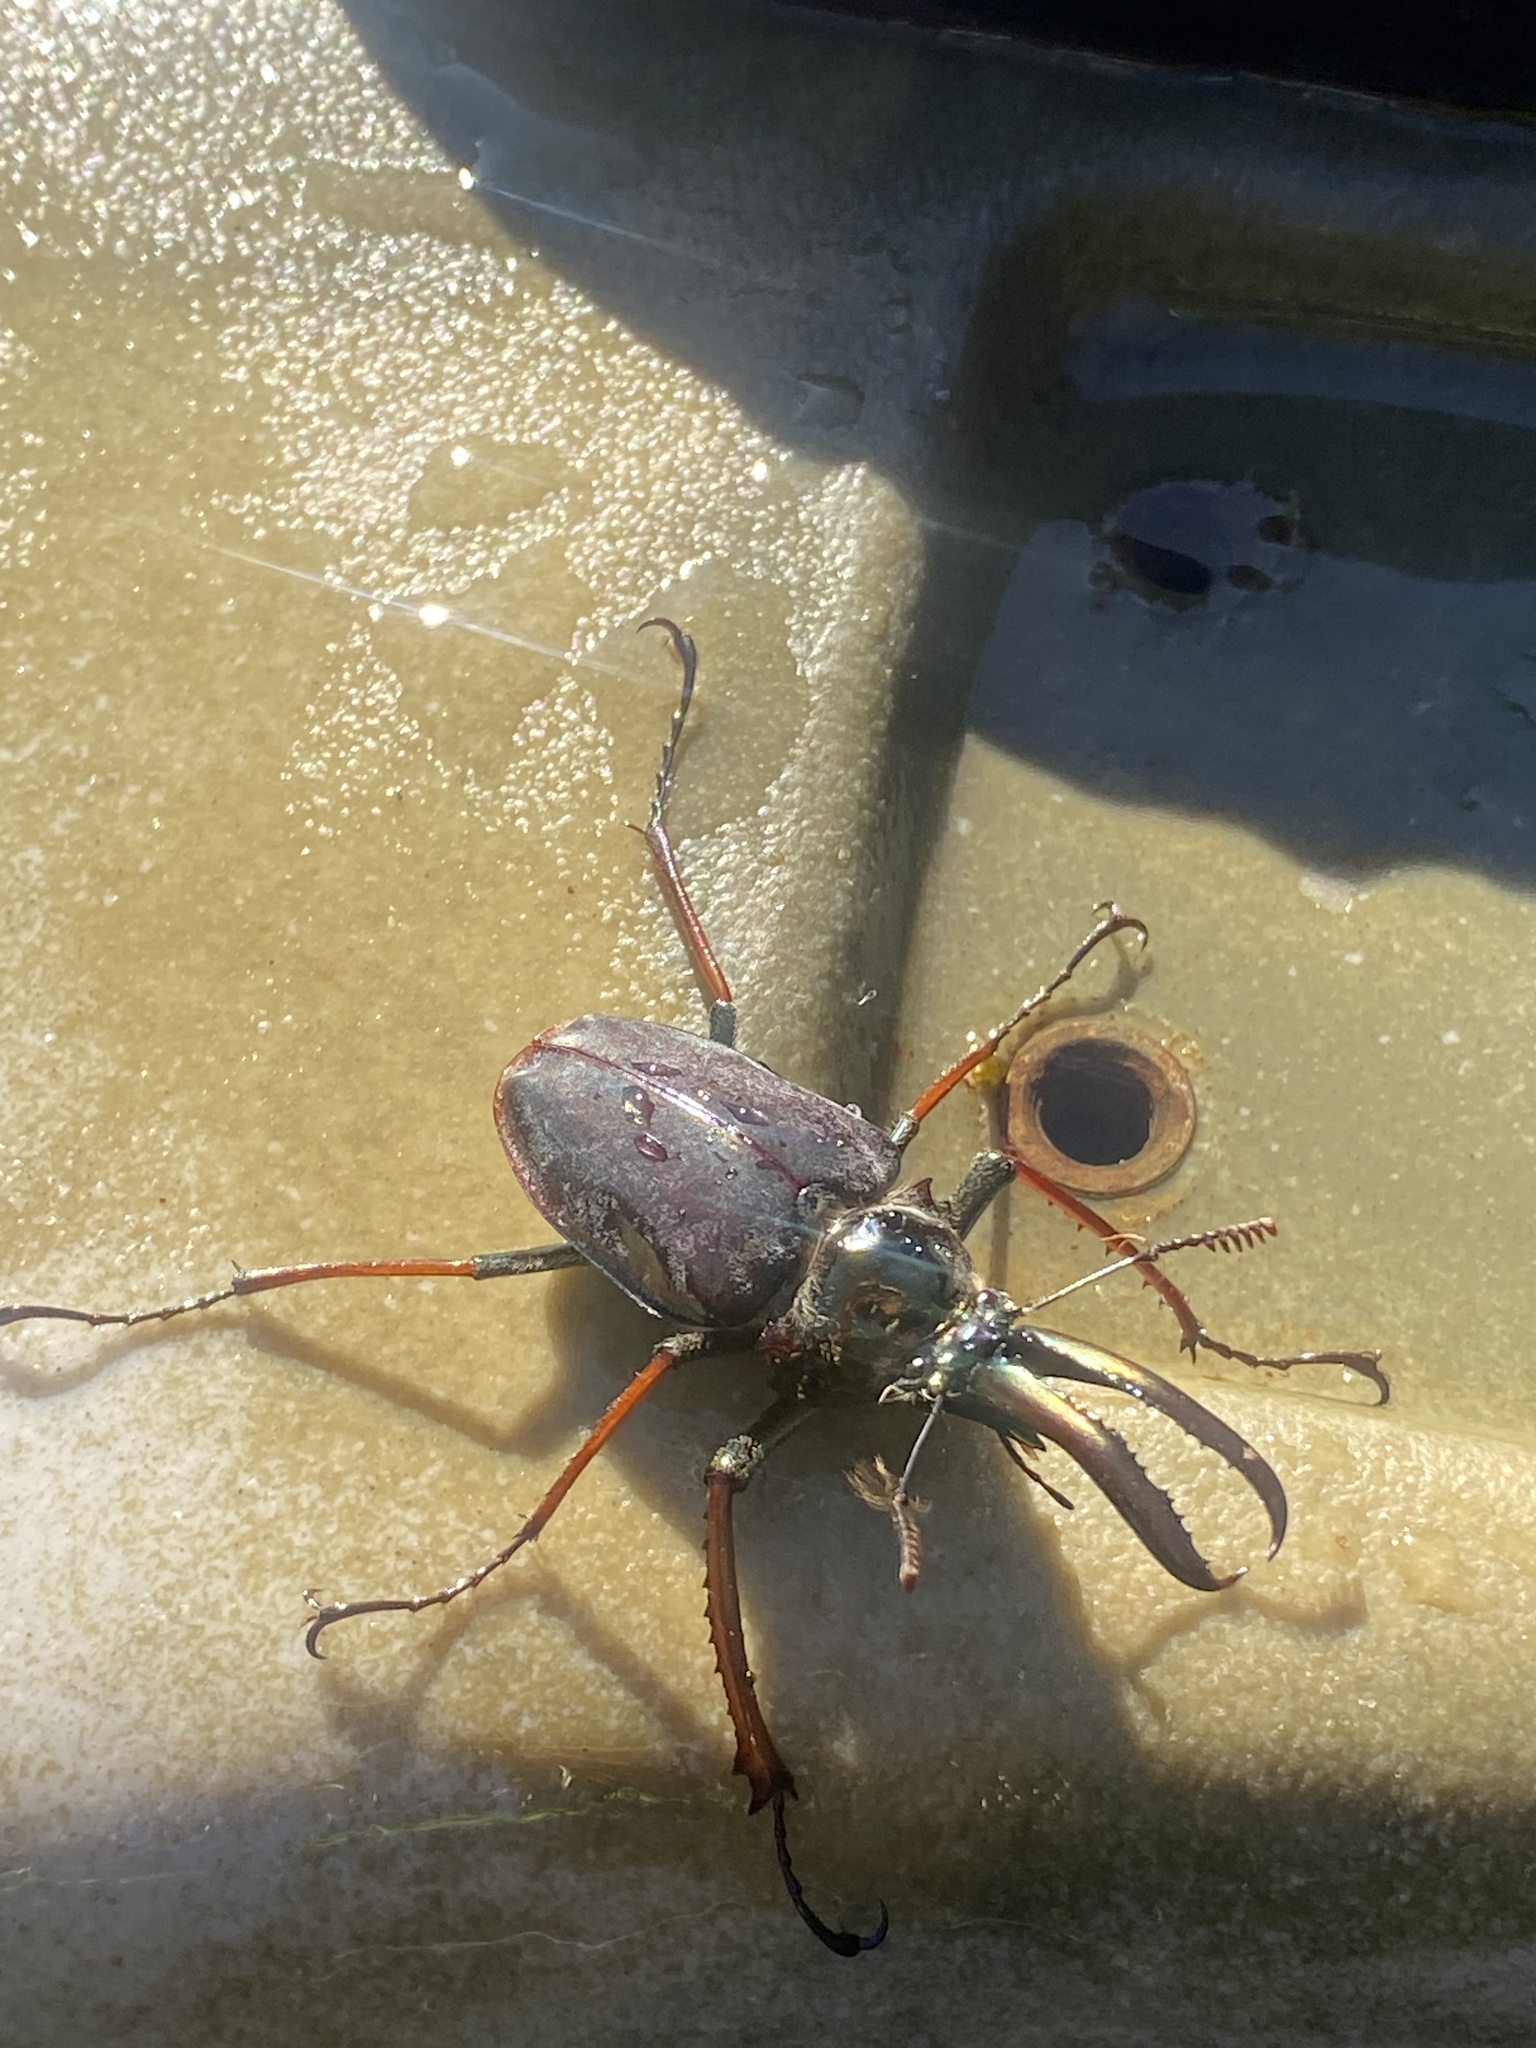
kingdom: Animalia
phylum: Arthropoda
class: Insecta
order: Coleoptera
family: Lucanidae
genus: Chiasognathus
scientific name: Chiasognathus grantii
